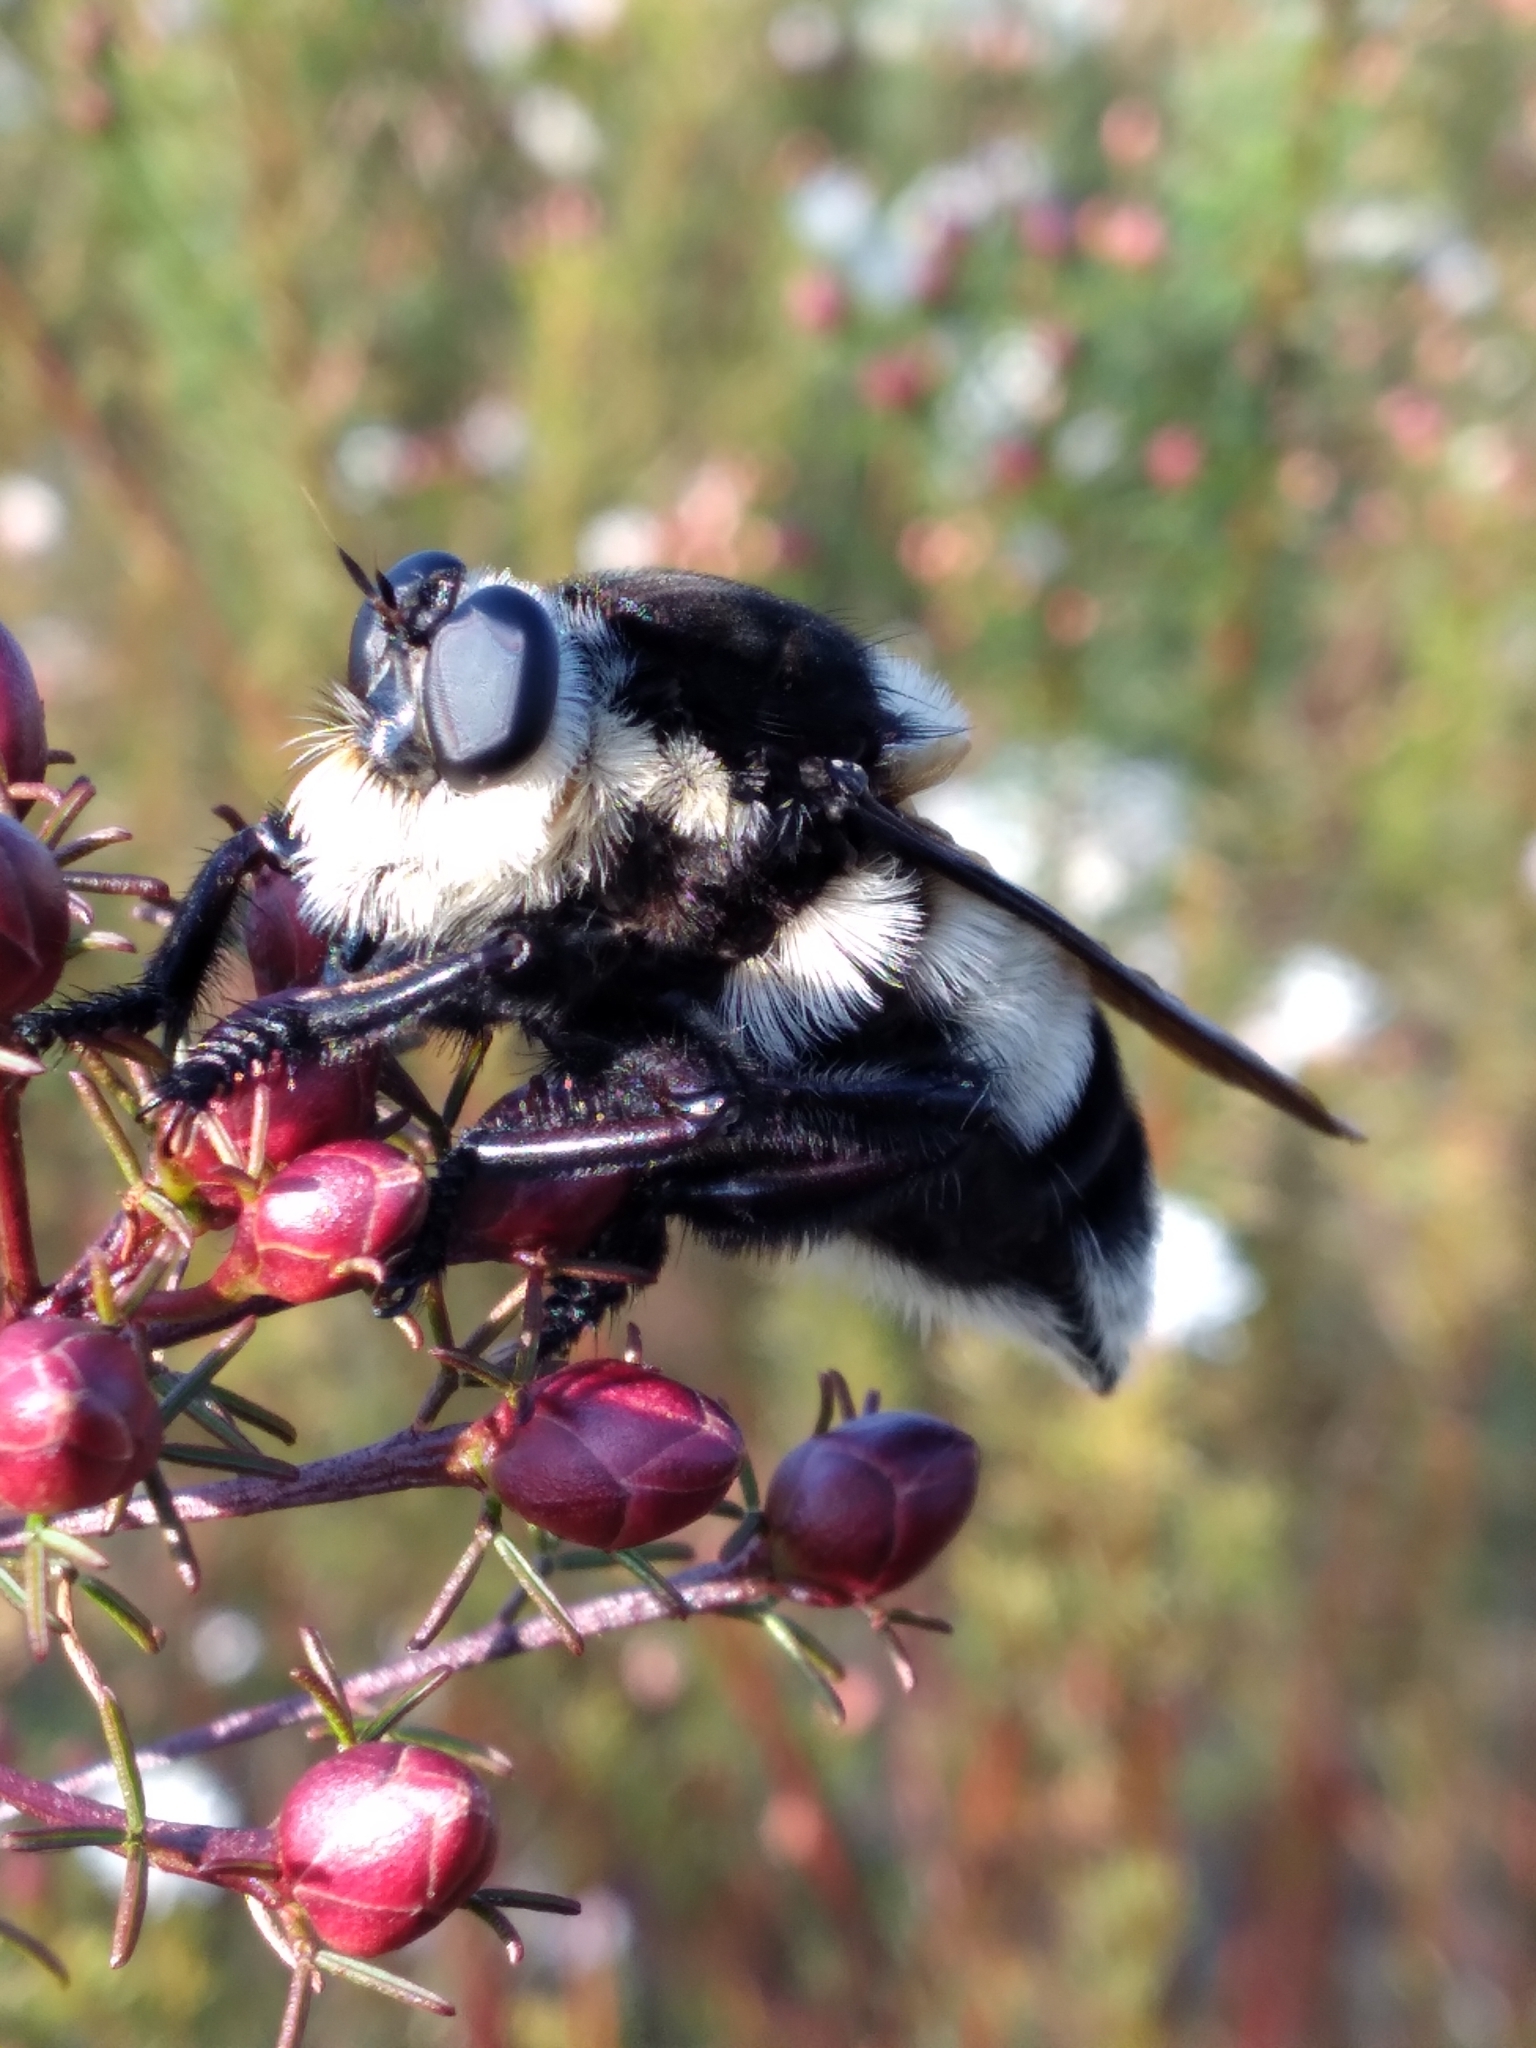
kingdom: Animalia
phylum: Arthropoda
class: Insecta
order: Diptera
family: Asilidae
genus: Mallophora
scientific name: Mallophora bomboides
